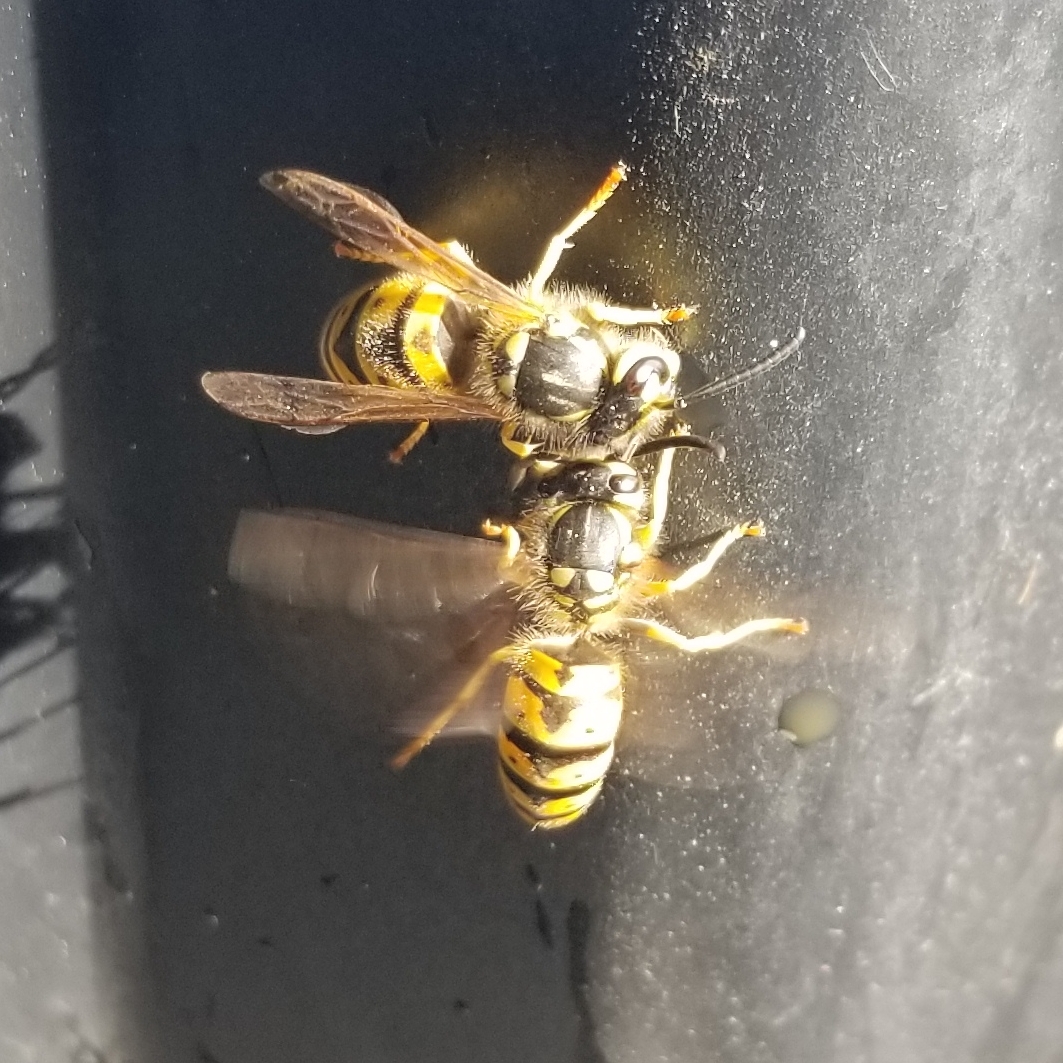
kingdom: Animalia
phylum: Arthropoda
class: Insecta
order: Hymenoptera
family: Vespidae
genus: Vespula
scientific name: Vespula germanica
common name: German wasp
